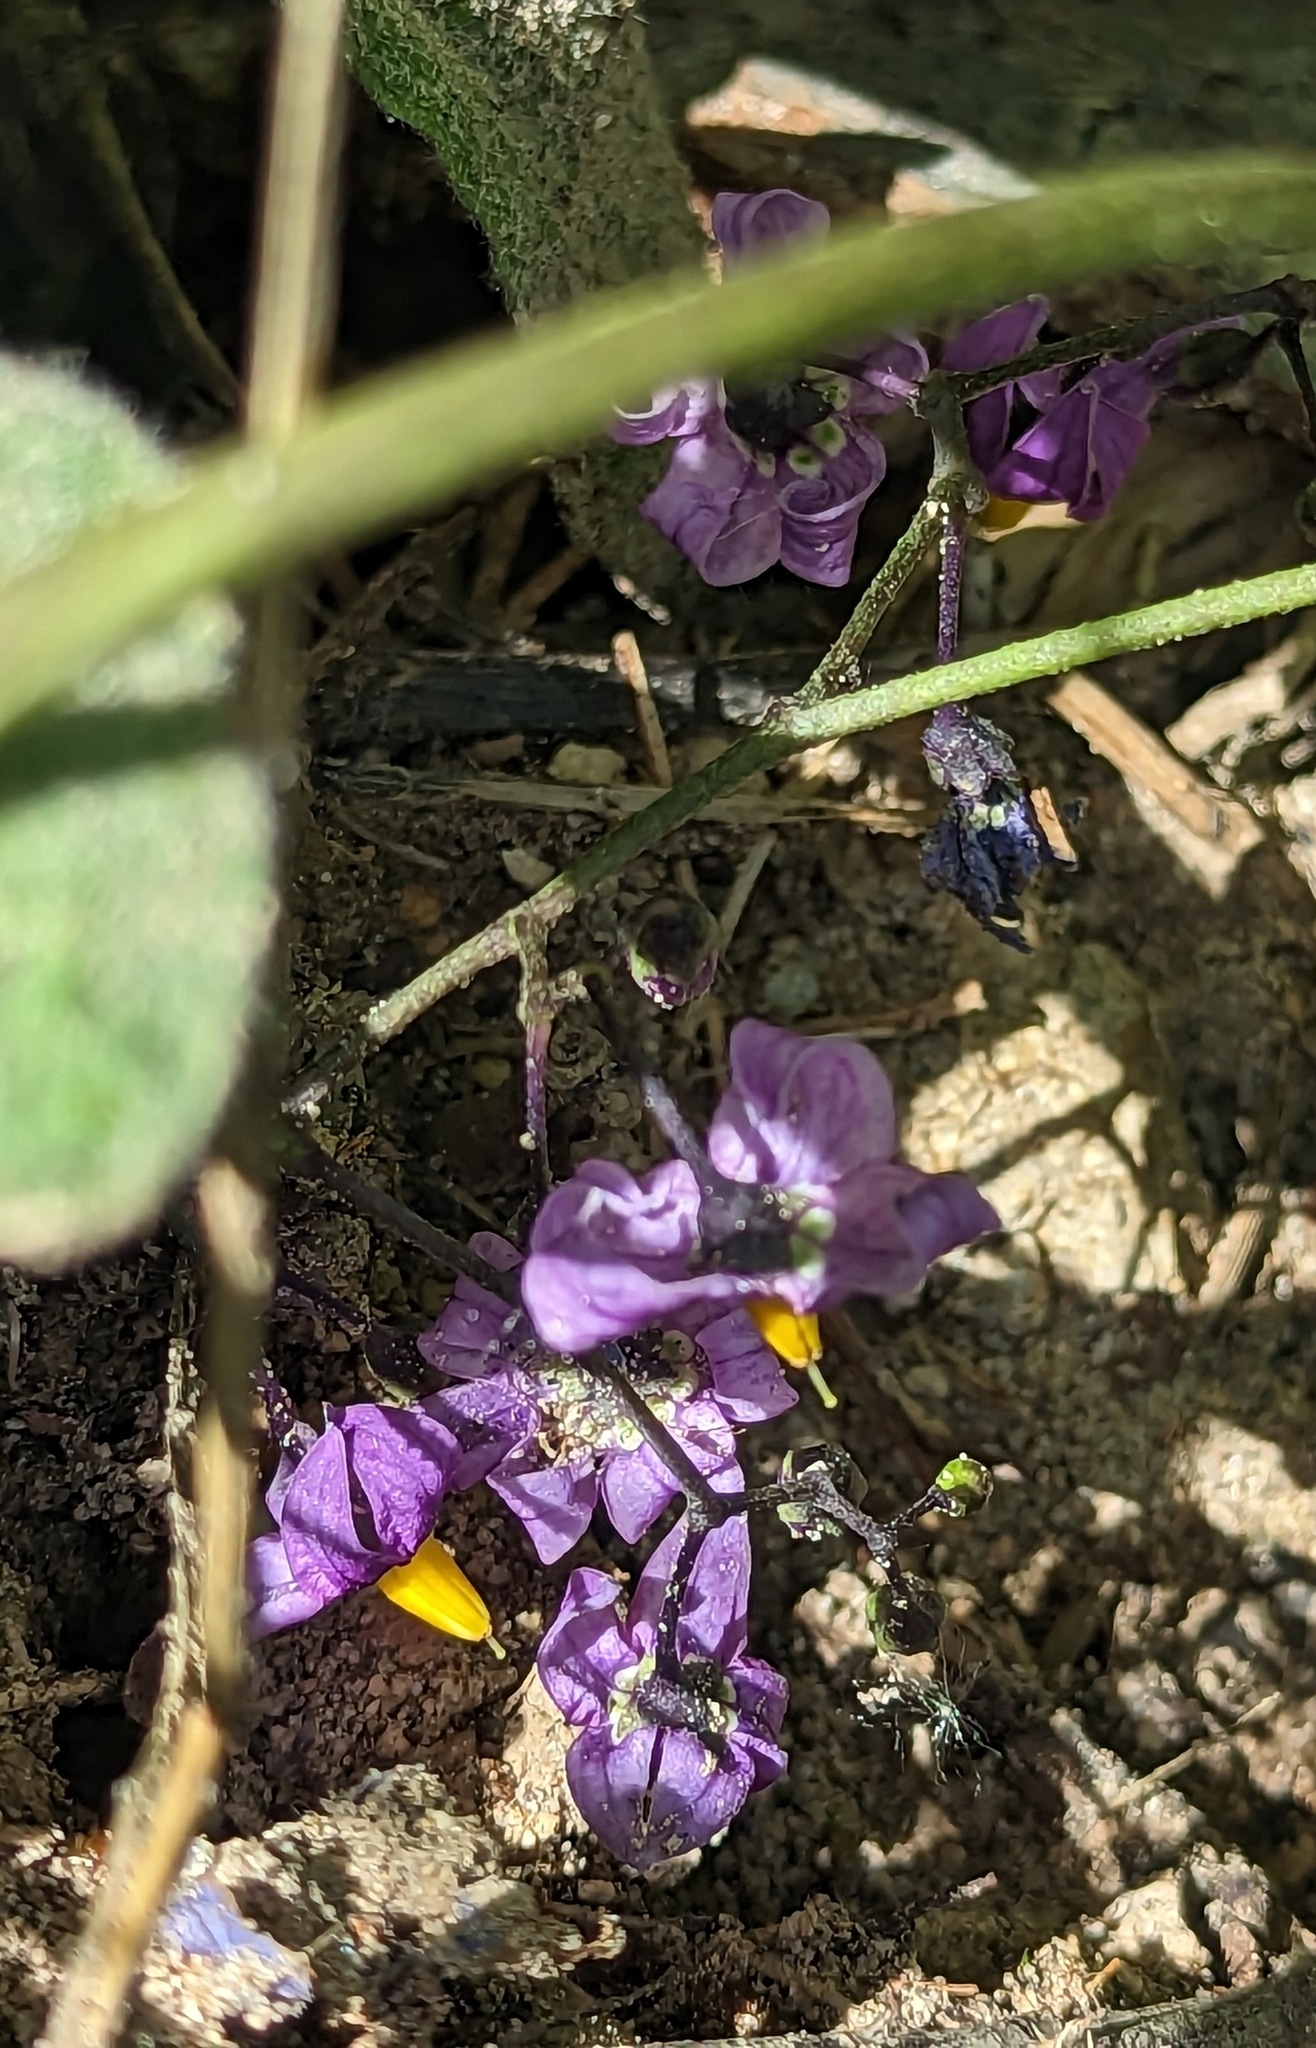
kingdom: Plantae
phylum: Tracheophyta
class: Magnoliopsida
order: Solanales
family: Solanaceae
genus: Solanum
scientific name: Solanum dulcamara
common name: Climbing nightshade
